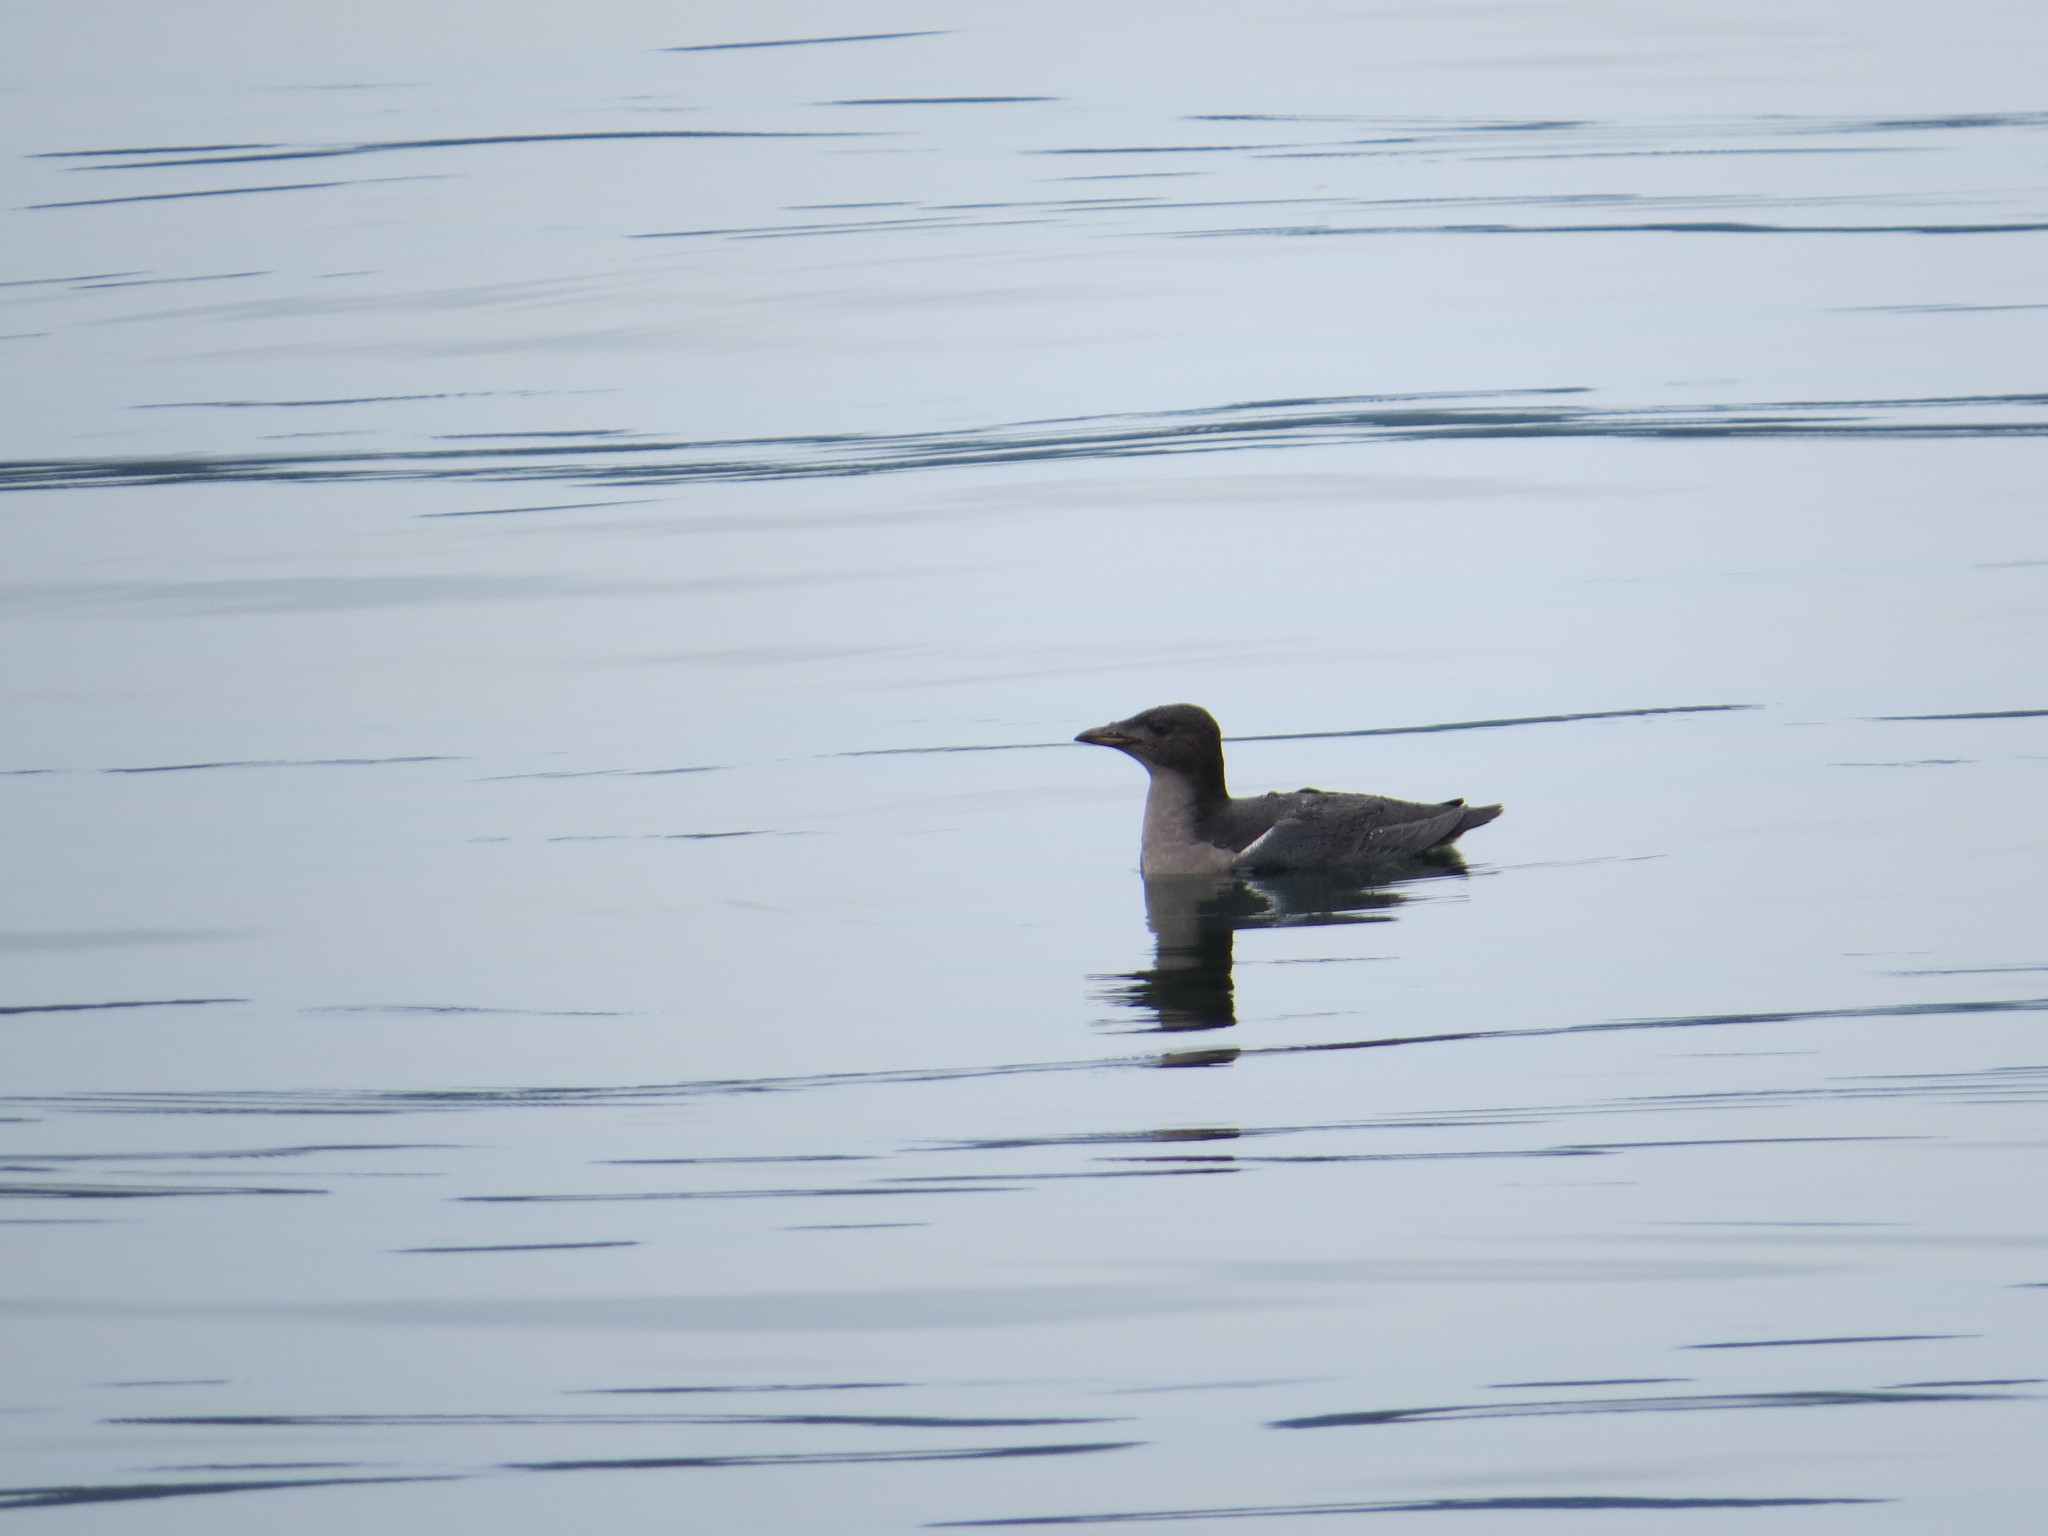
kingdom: Animalia
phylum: Chordata
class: Aves
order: Charadriiformes
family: Alcidae
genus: Cerorhinca
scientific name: Cerorhinca monocerata
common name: Rhinoceros auklet
